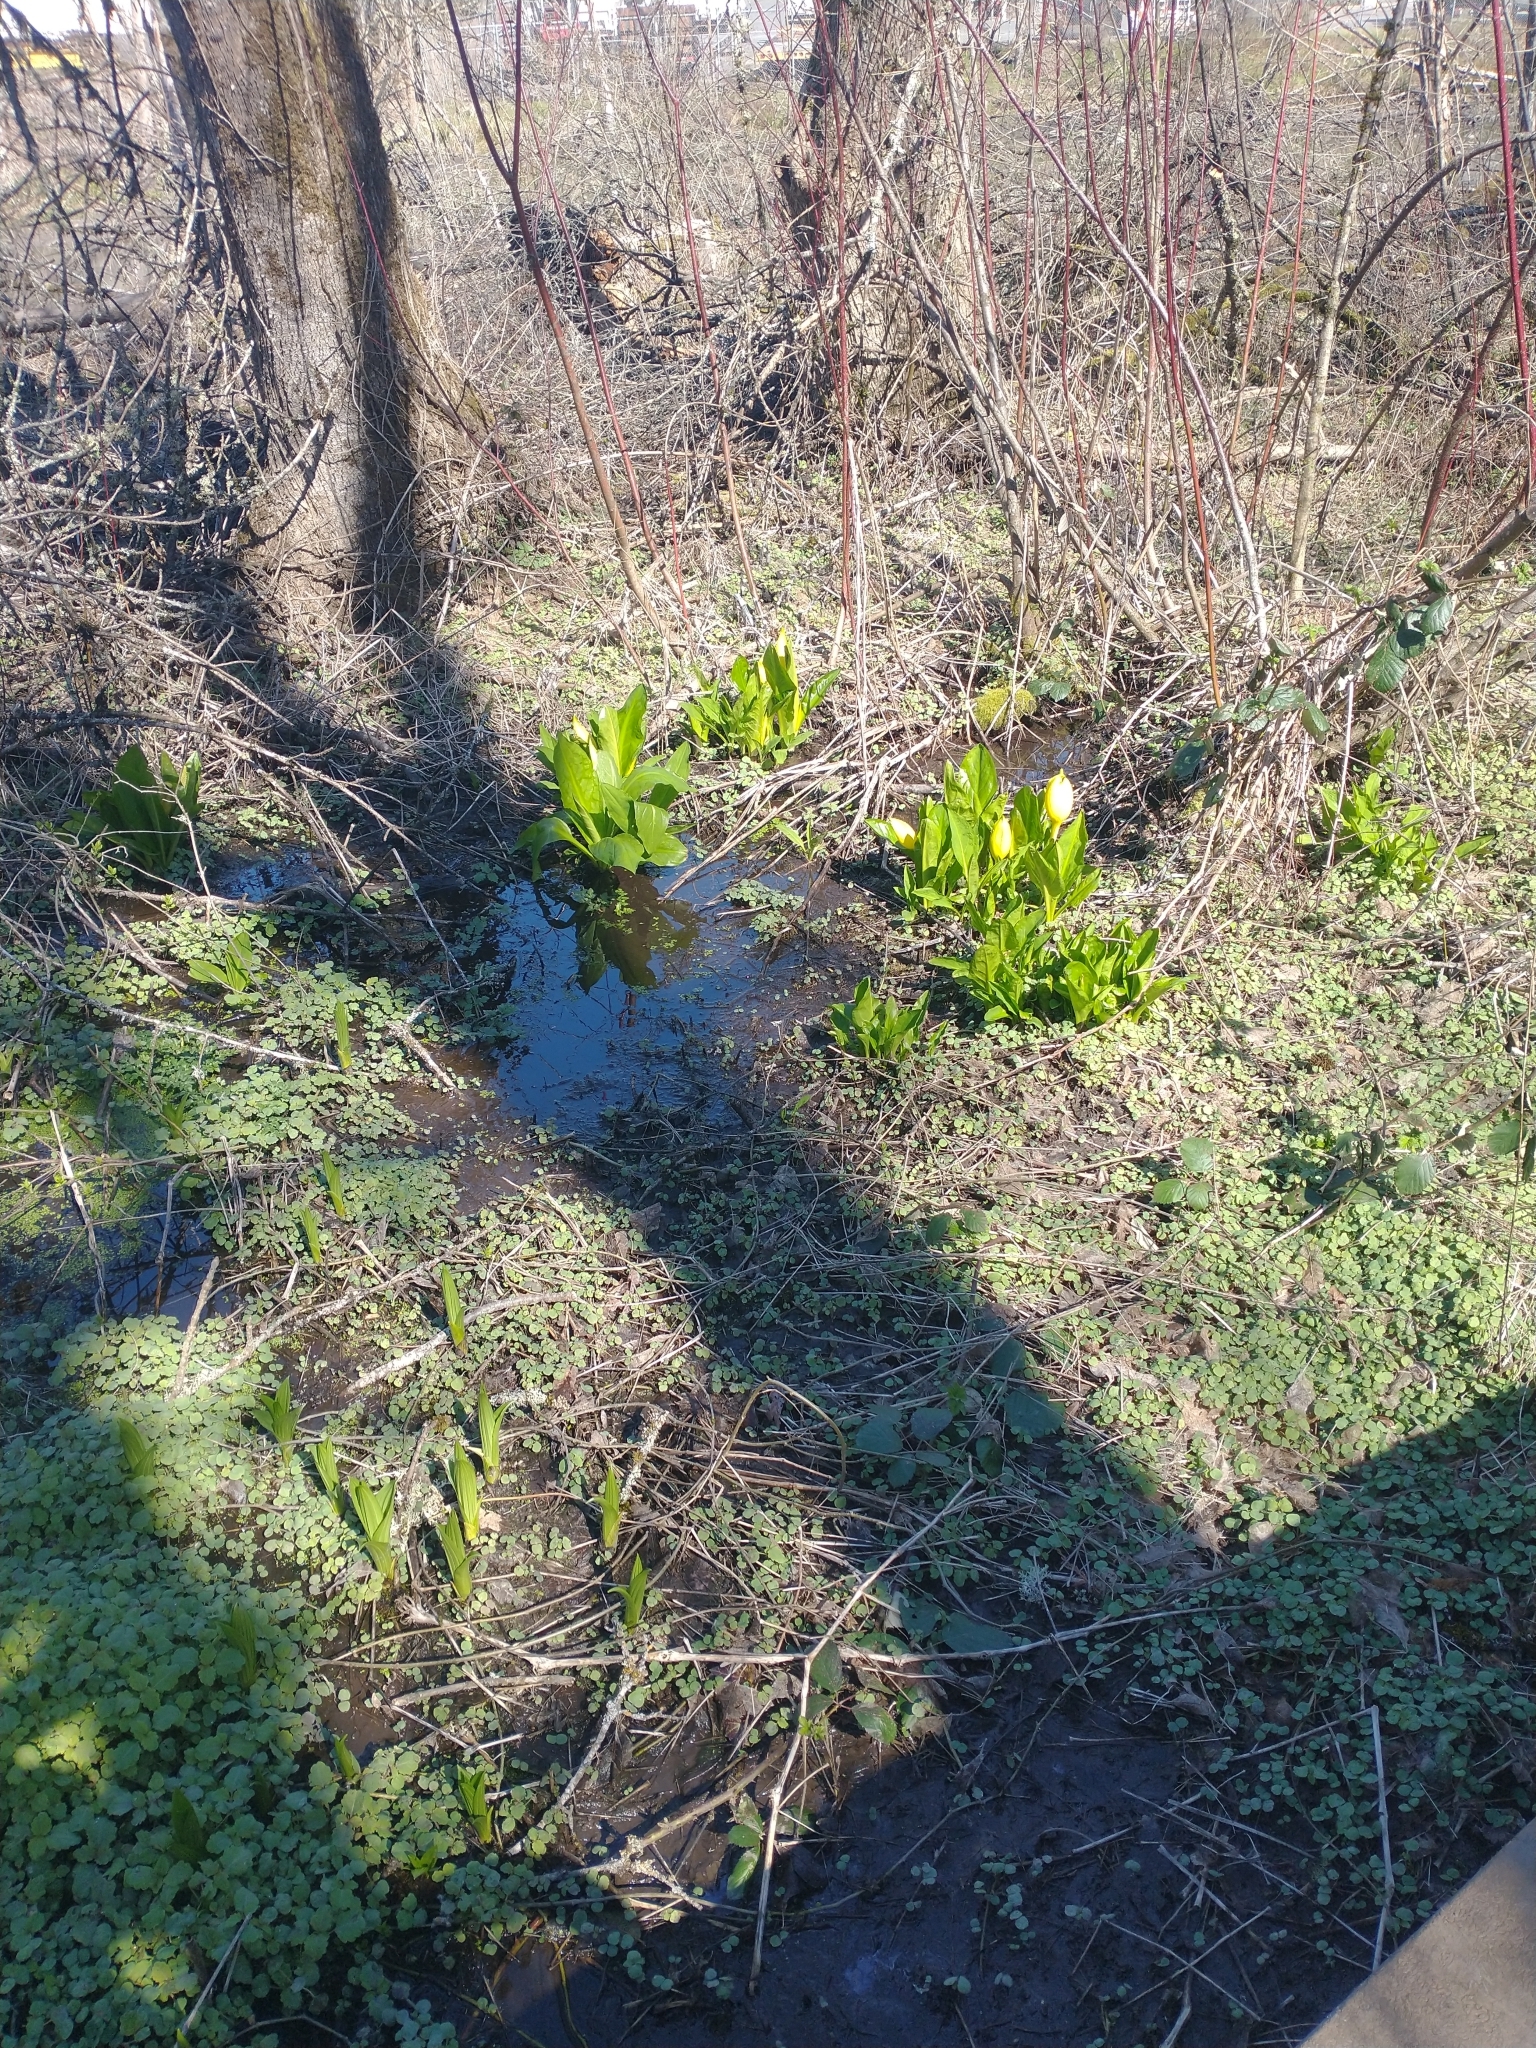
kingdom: Plantae
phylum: Tracheophyta
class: Liliopsida
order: Alismatales
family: Araceae
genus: Lysichiton
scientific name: Lysichiton americanus
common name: American skunk cabbage
